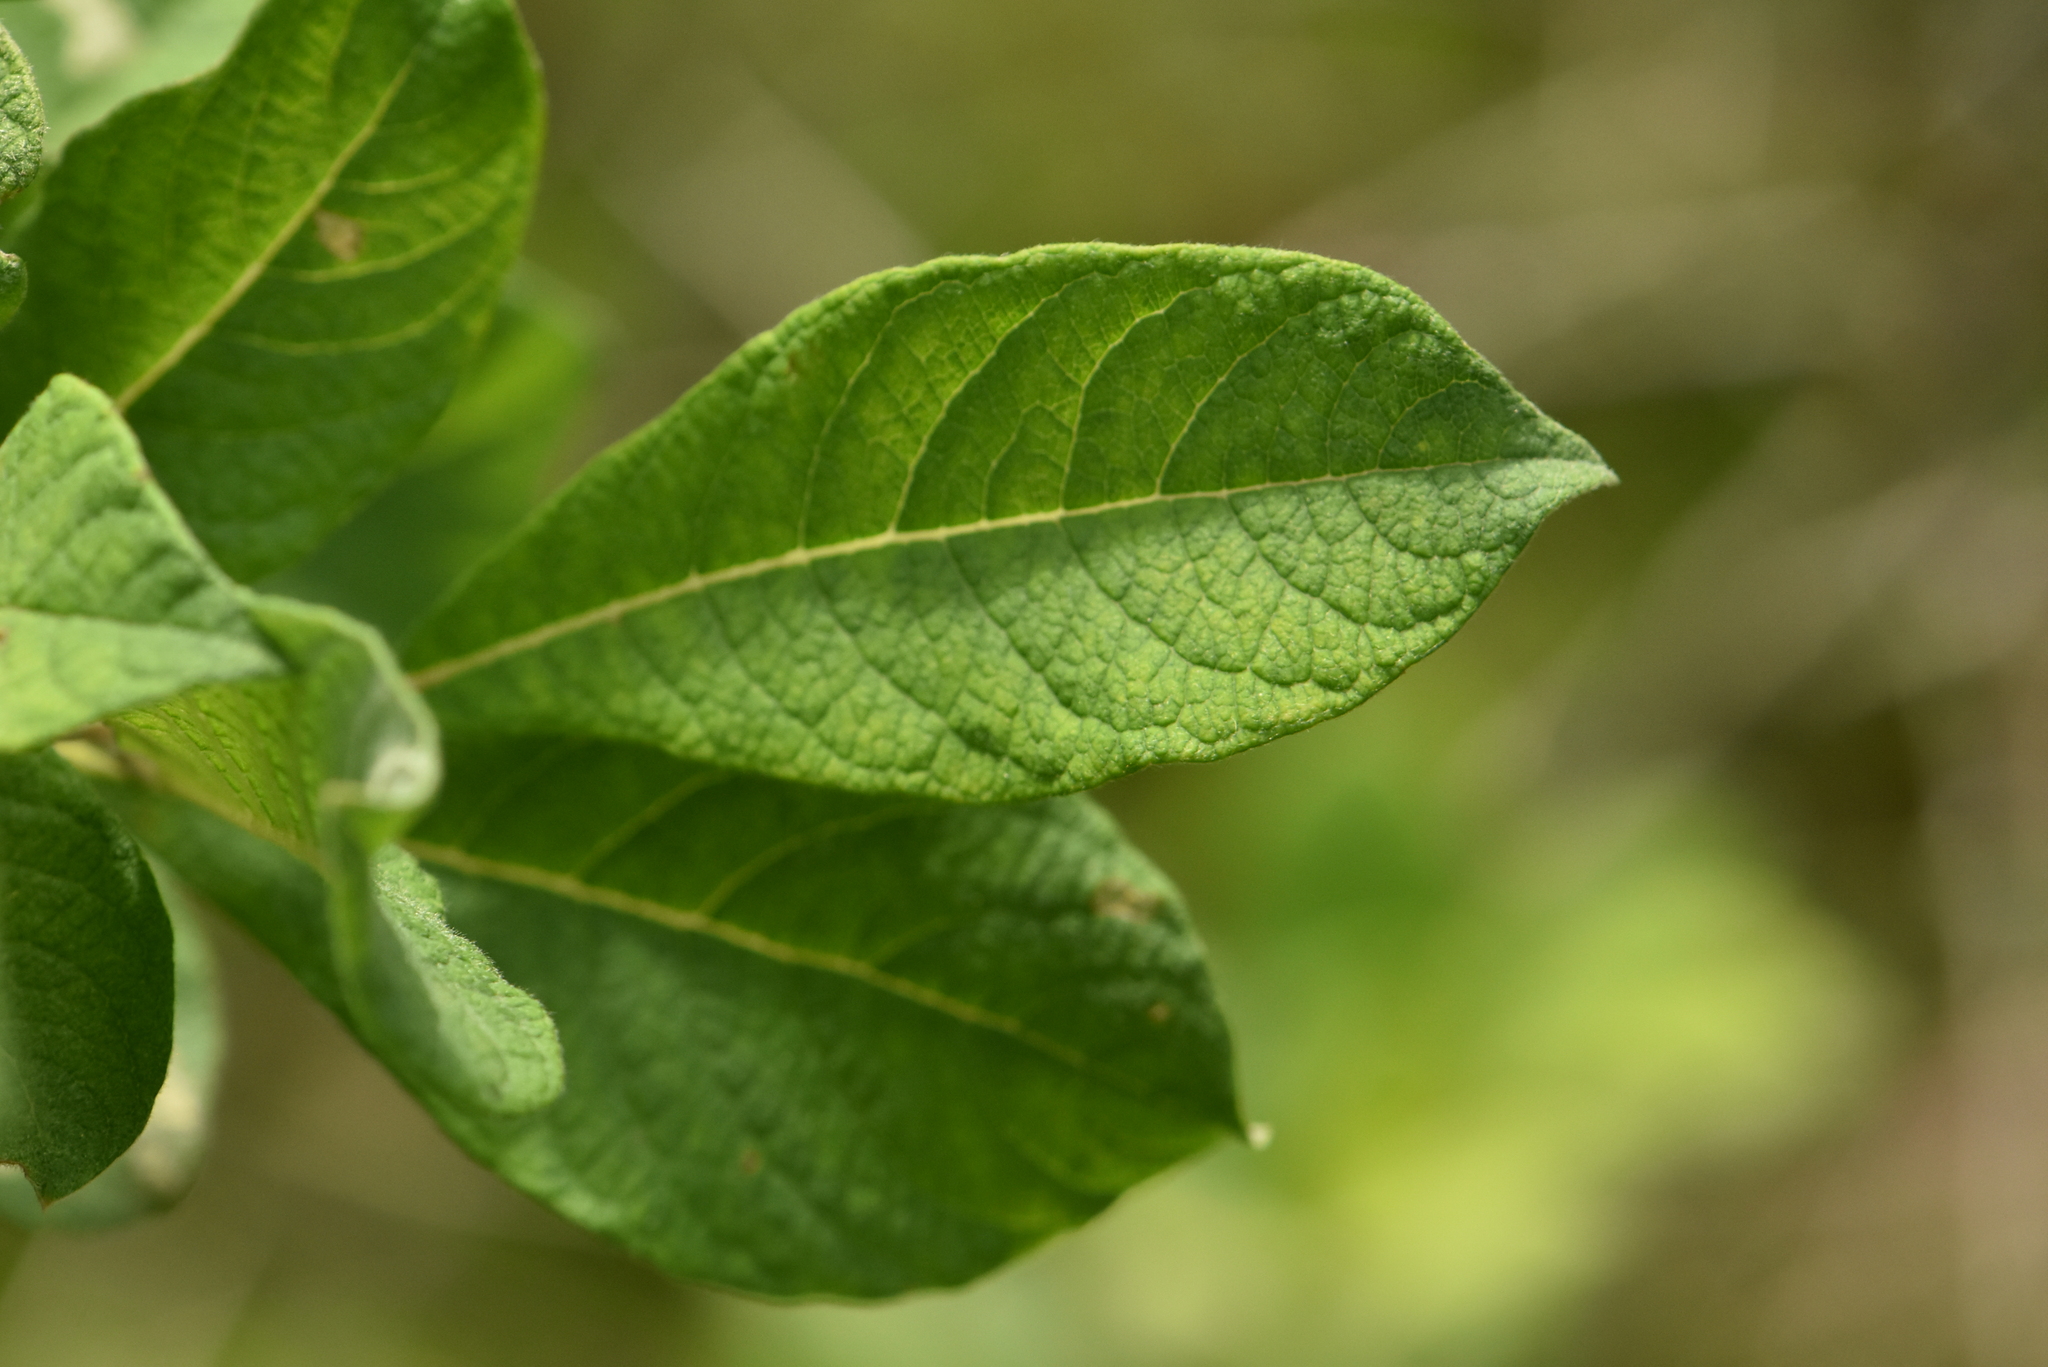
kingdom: Plantae
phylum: Tracheophyta
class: Magnoliopsida
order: Malpighiales
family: Salicaceae
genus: Salix
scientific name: Salix aurita
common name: Eared willow
